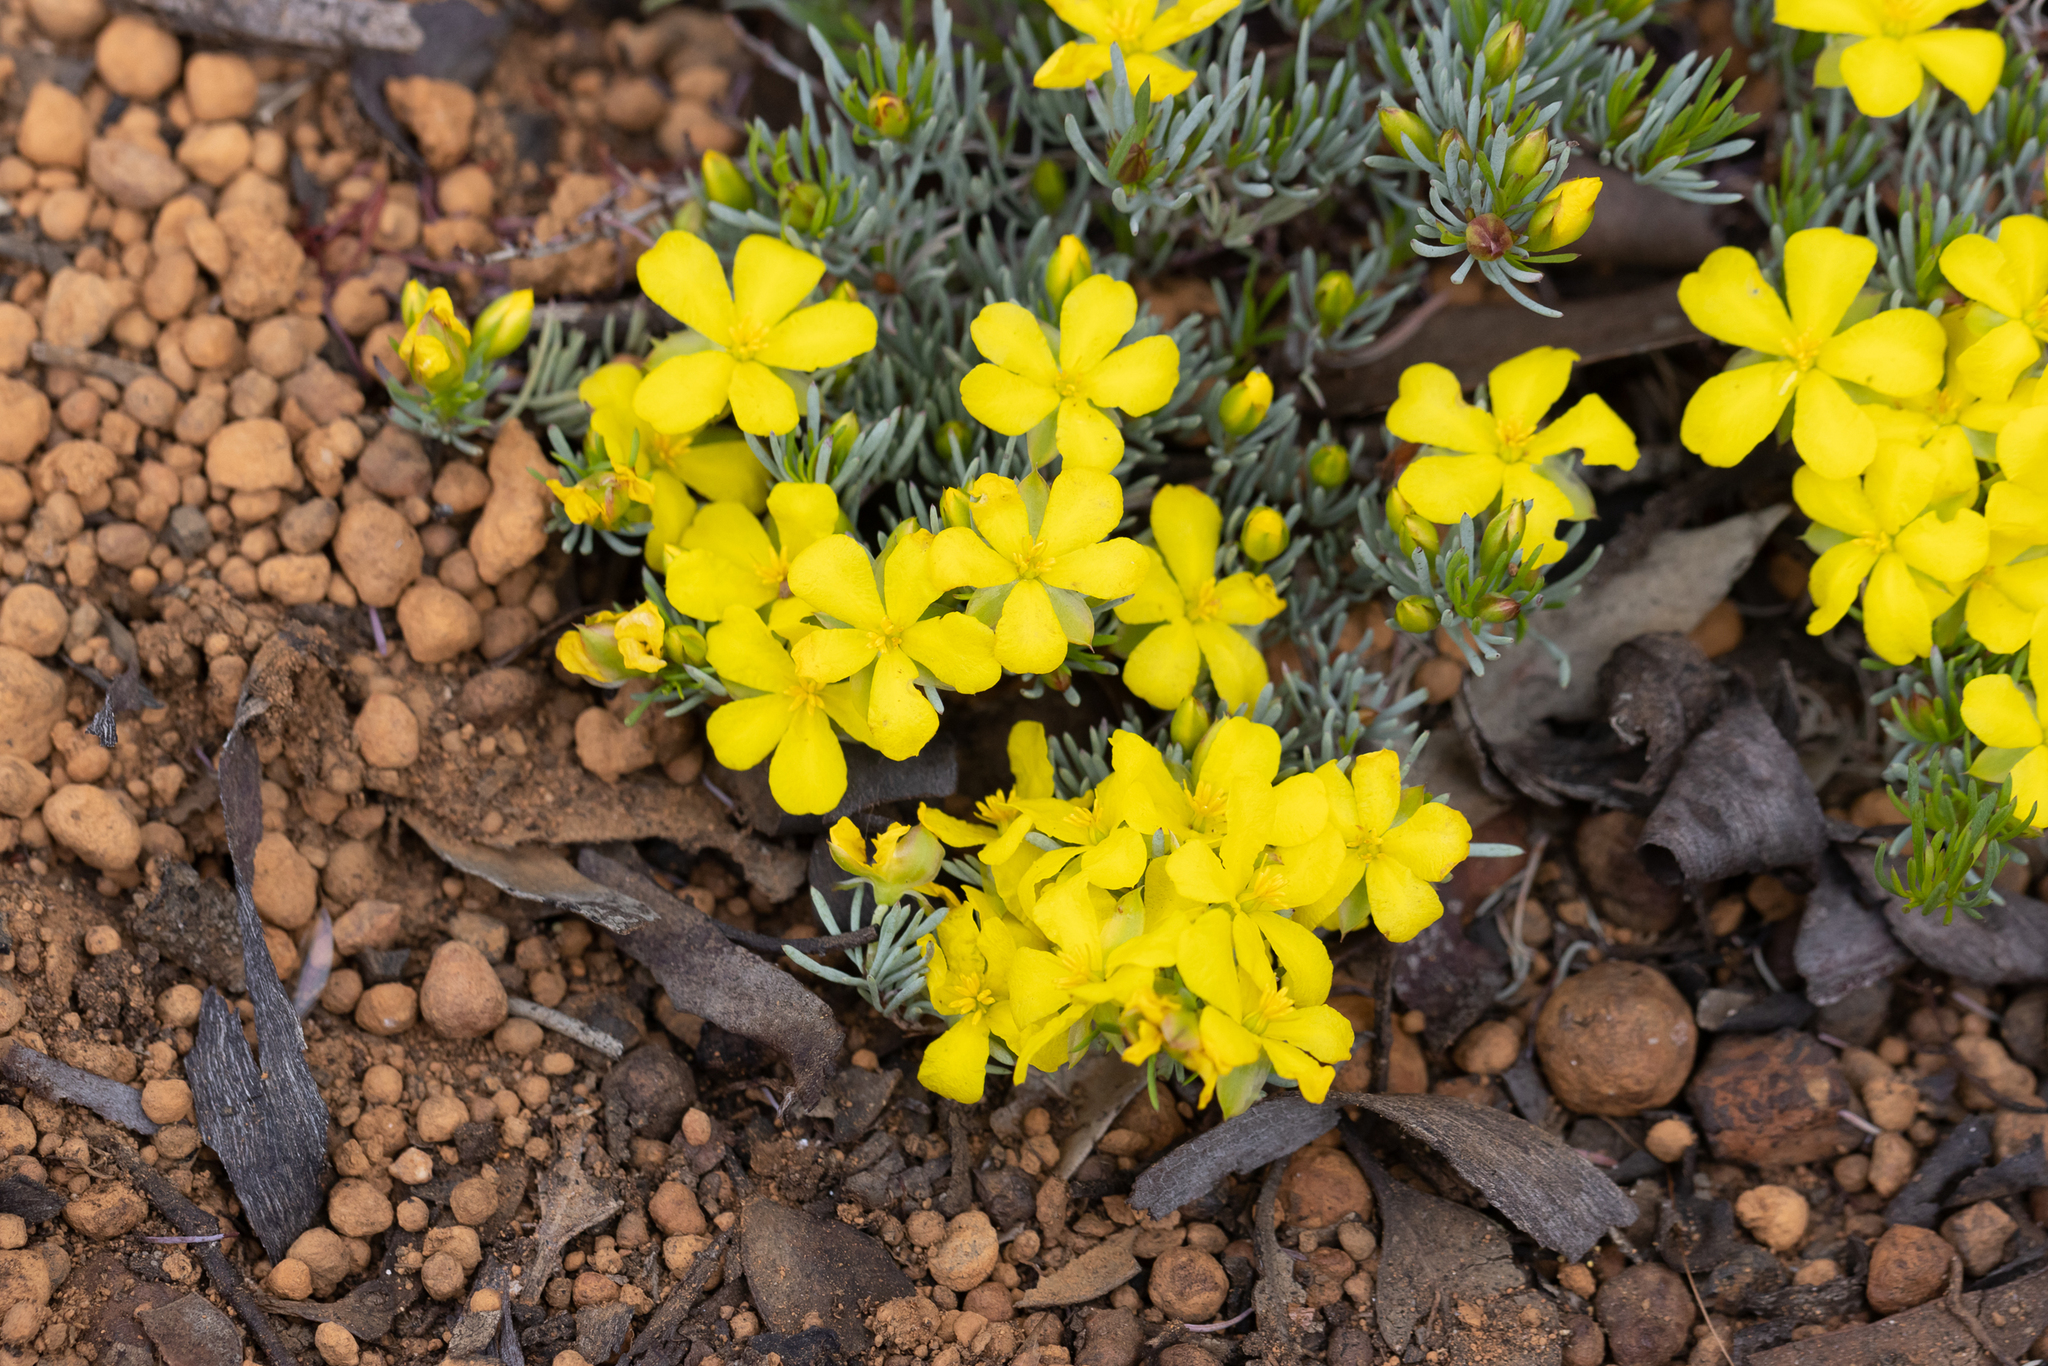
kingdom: Plantae
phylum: Tracheophyta
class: Magnoliopsida
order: Dilleniales
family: Dilleniaceae
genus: Hibbertia
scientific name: Hibbertia hibbertioides
